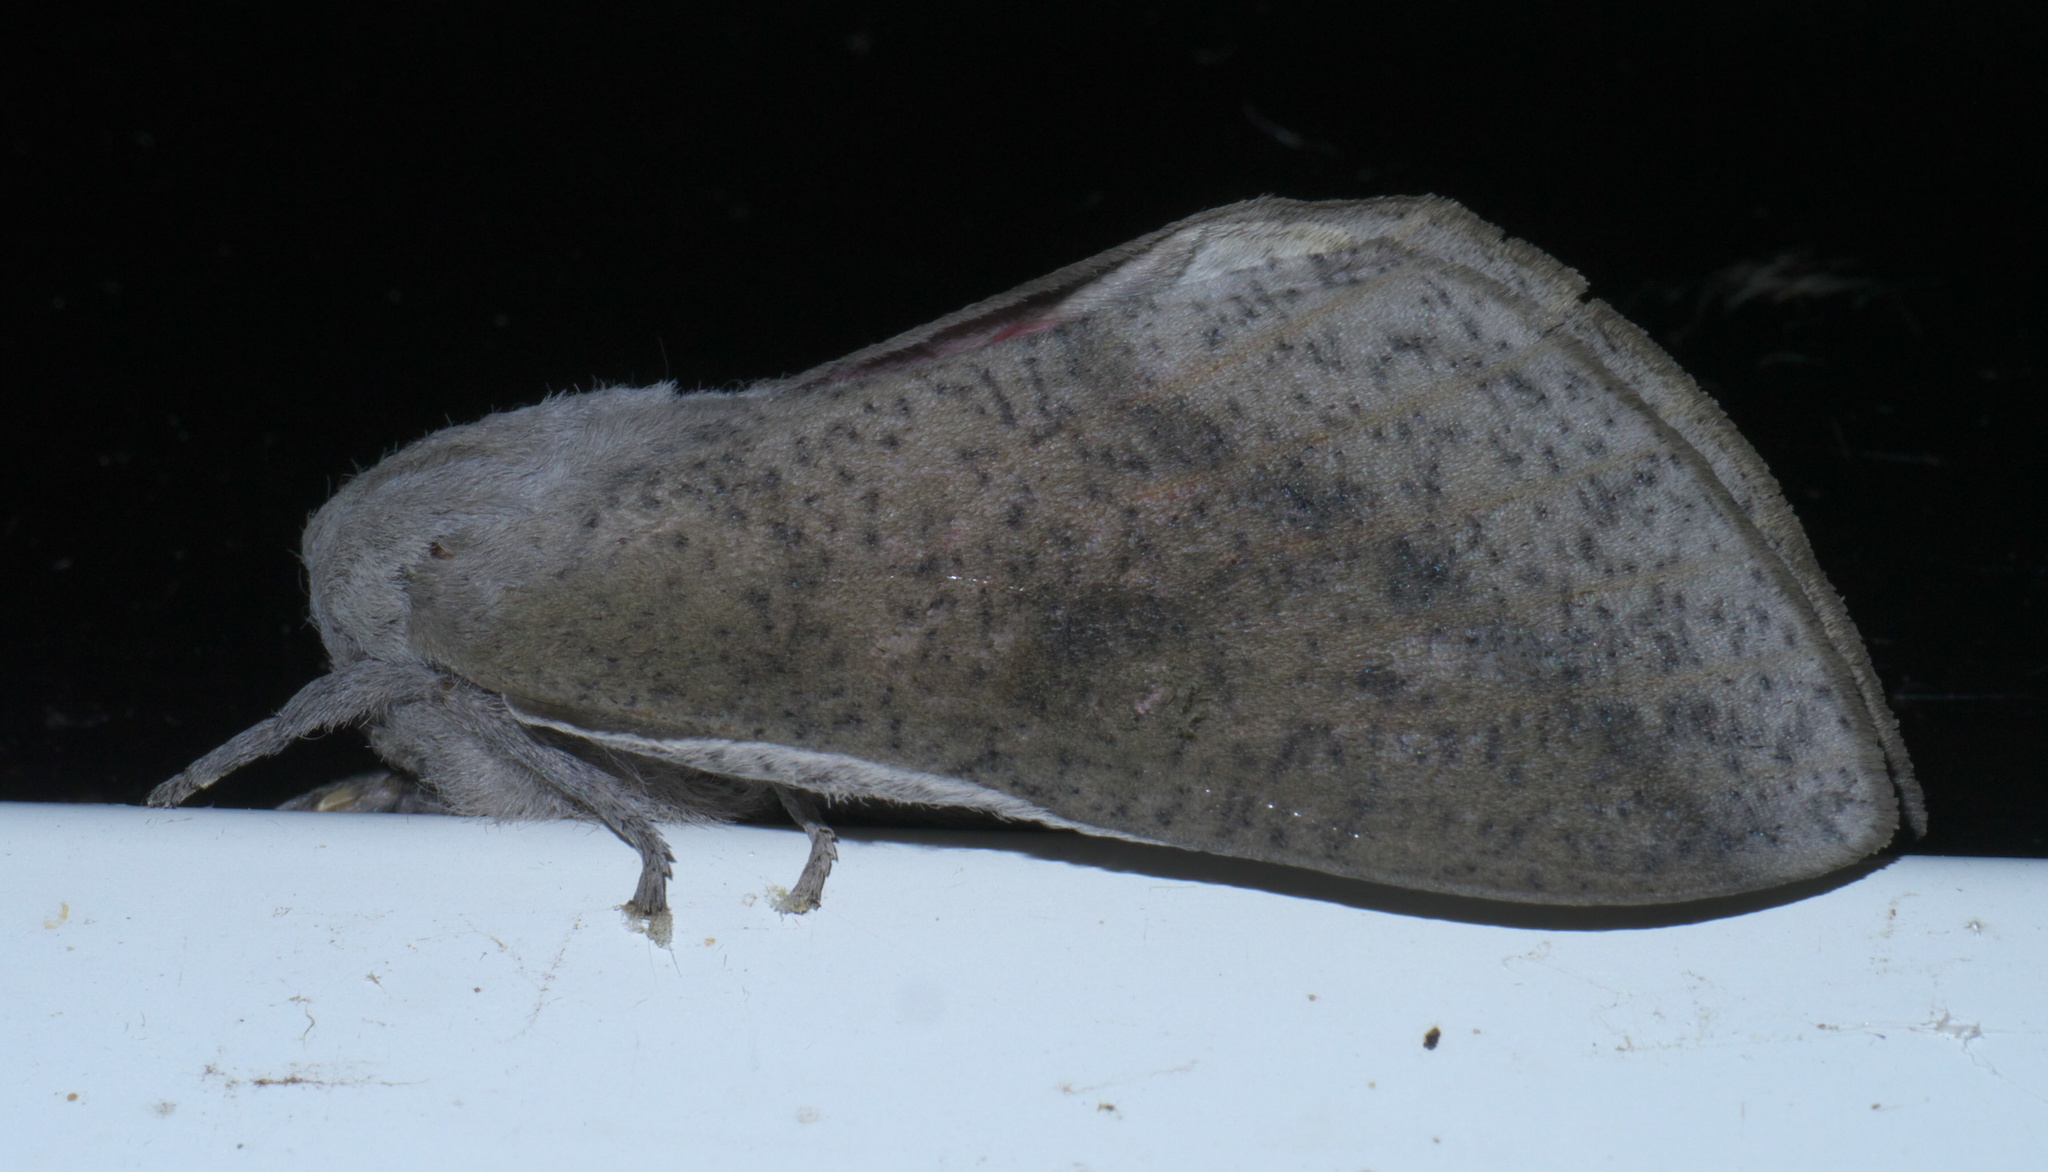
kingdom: Animalia
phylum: Arthropoda
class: Insecta
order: Lepidoptera
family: Saturniidae
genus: Syssphinx
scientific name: Syssphinx bicolor
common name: Honey locust moth
